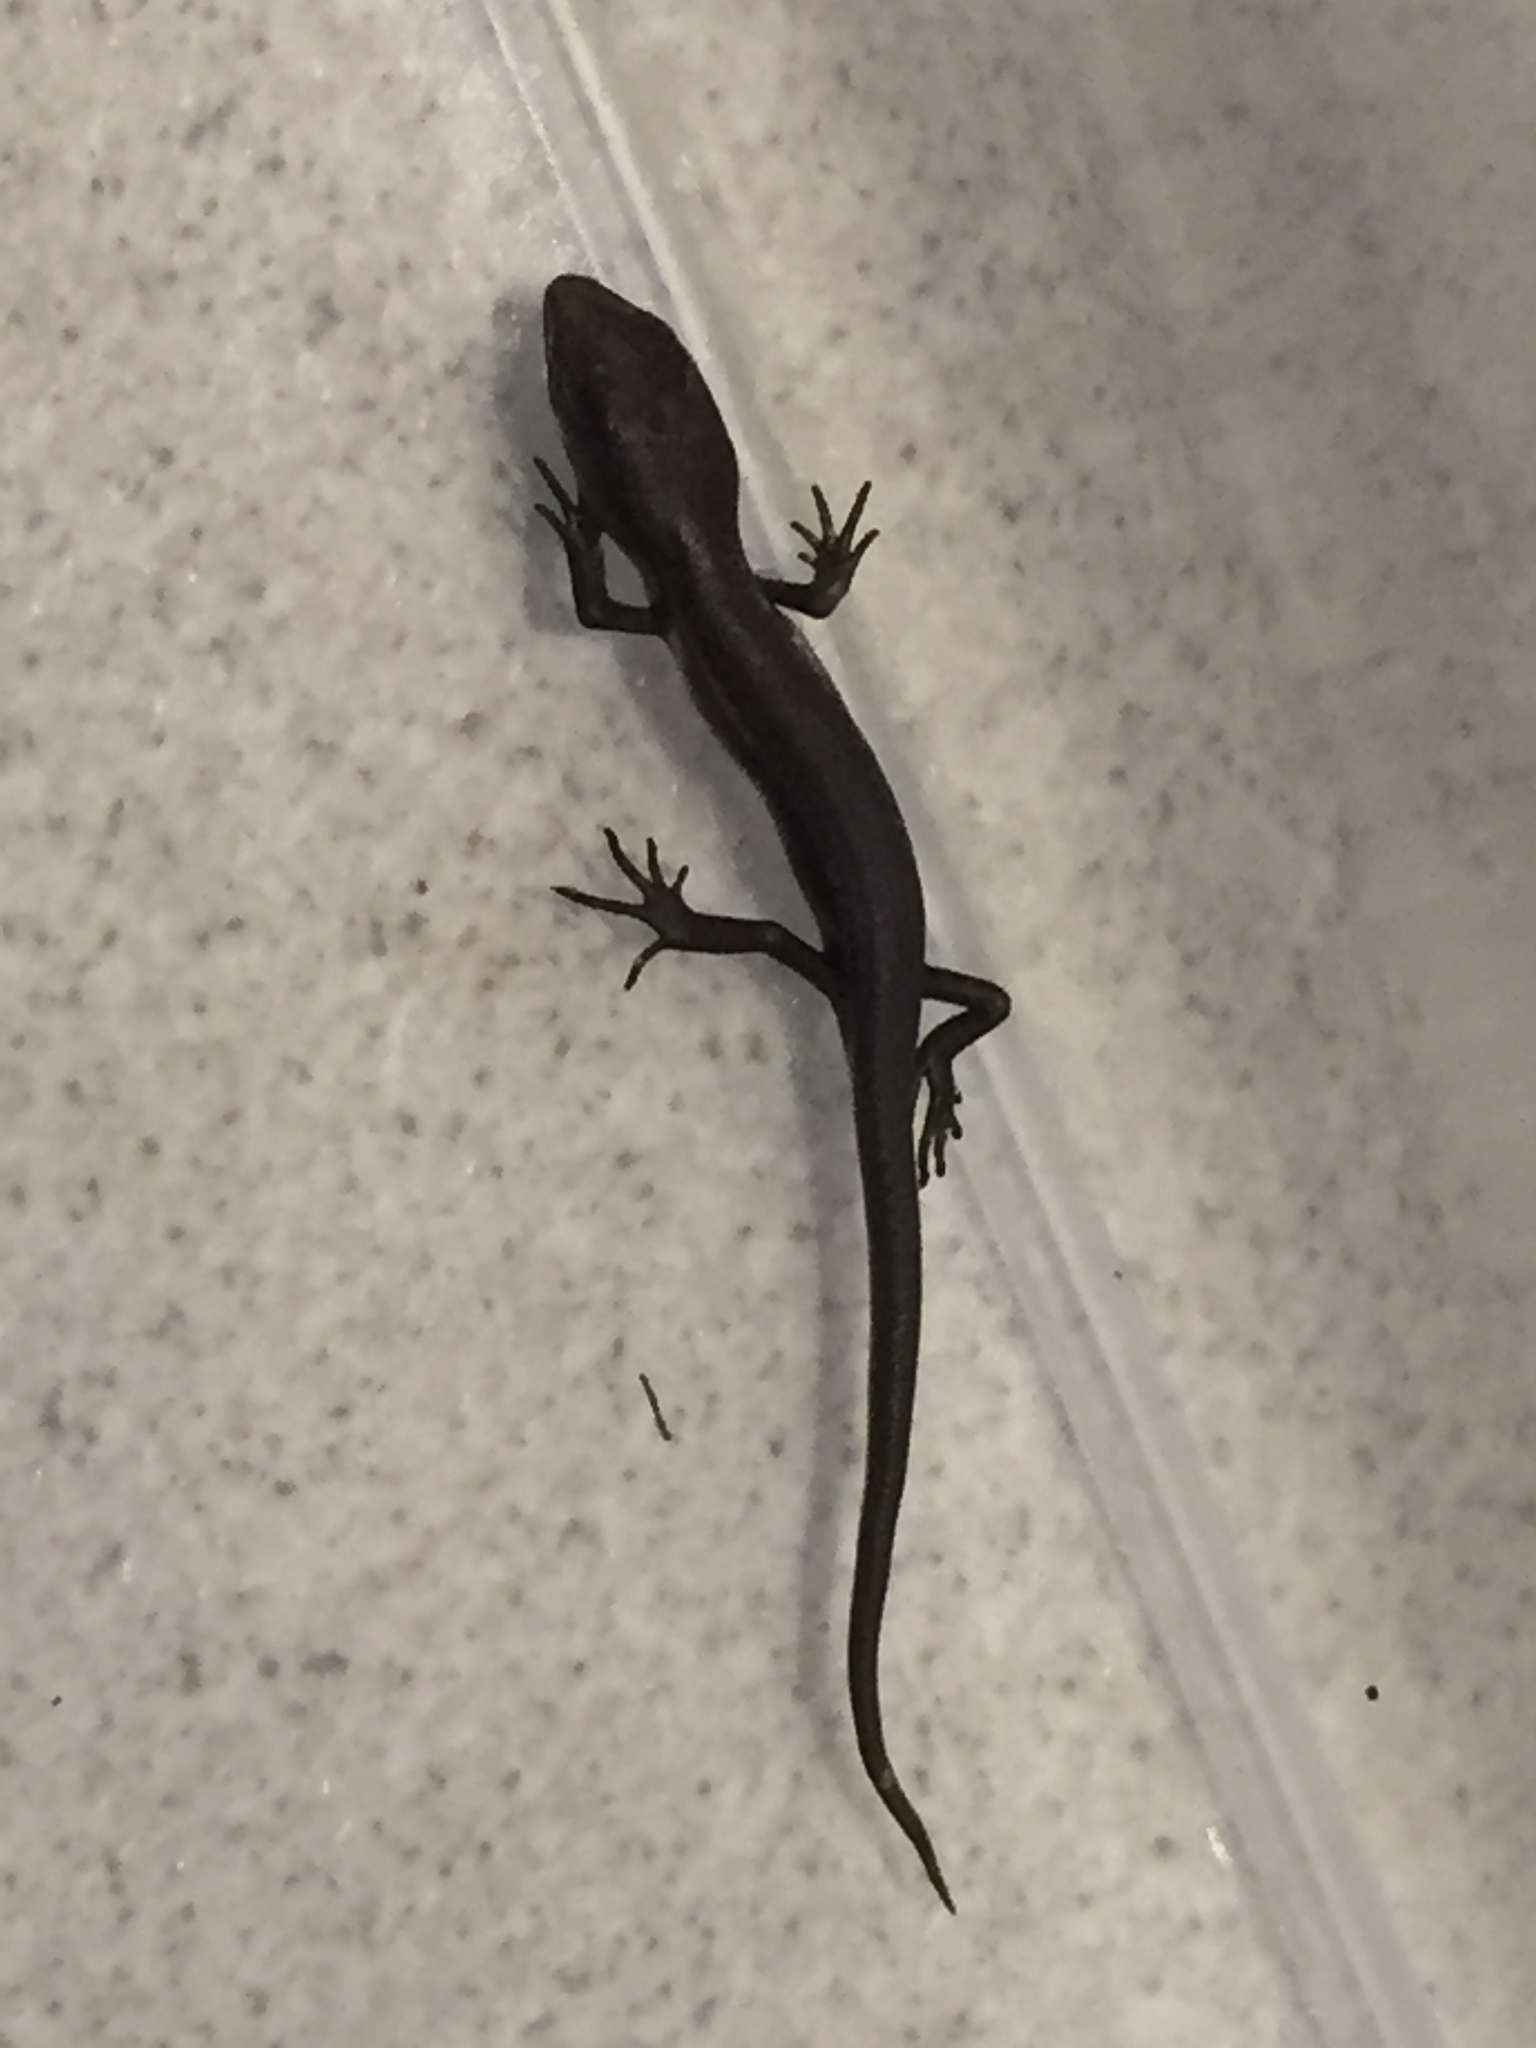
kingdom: Animalia
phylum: Chordata
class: Squamata
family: Scincidae
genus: Lampropholis
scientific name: Lampropholis delicata
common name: Plague skink
